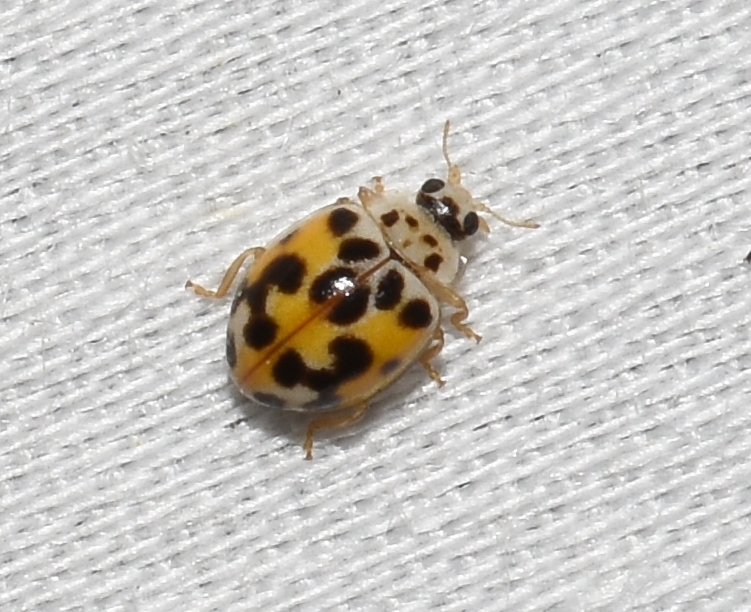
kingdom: Animalia
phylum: Arthropoda
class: Insecta
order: Coleoptera
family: Coccinellidae
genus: Psyllobora
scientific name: Psyllobora vigintimaculata
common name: Ladybird beetle
